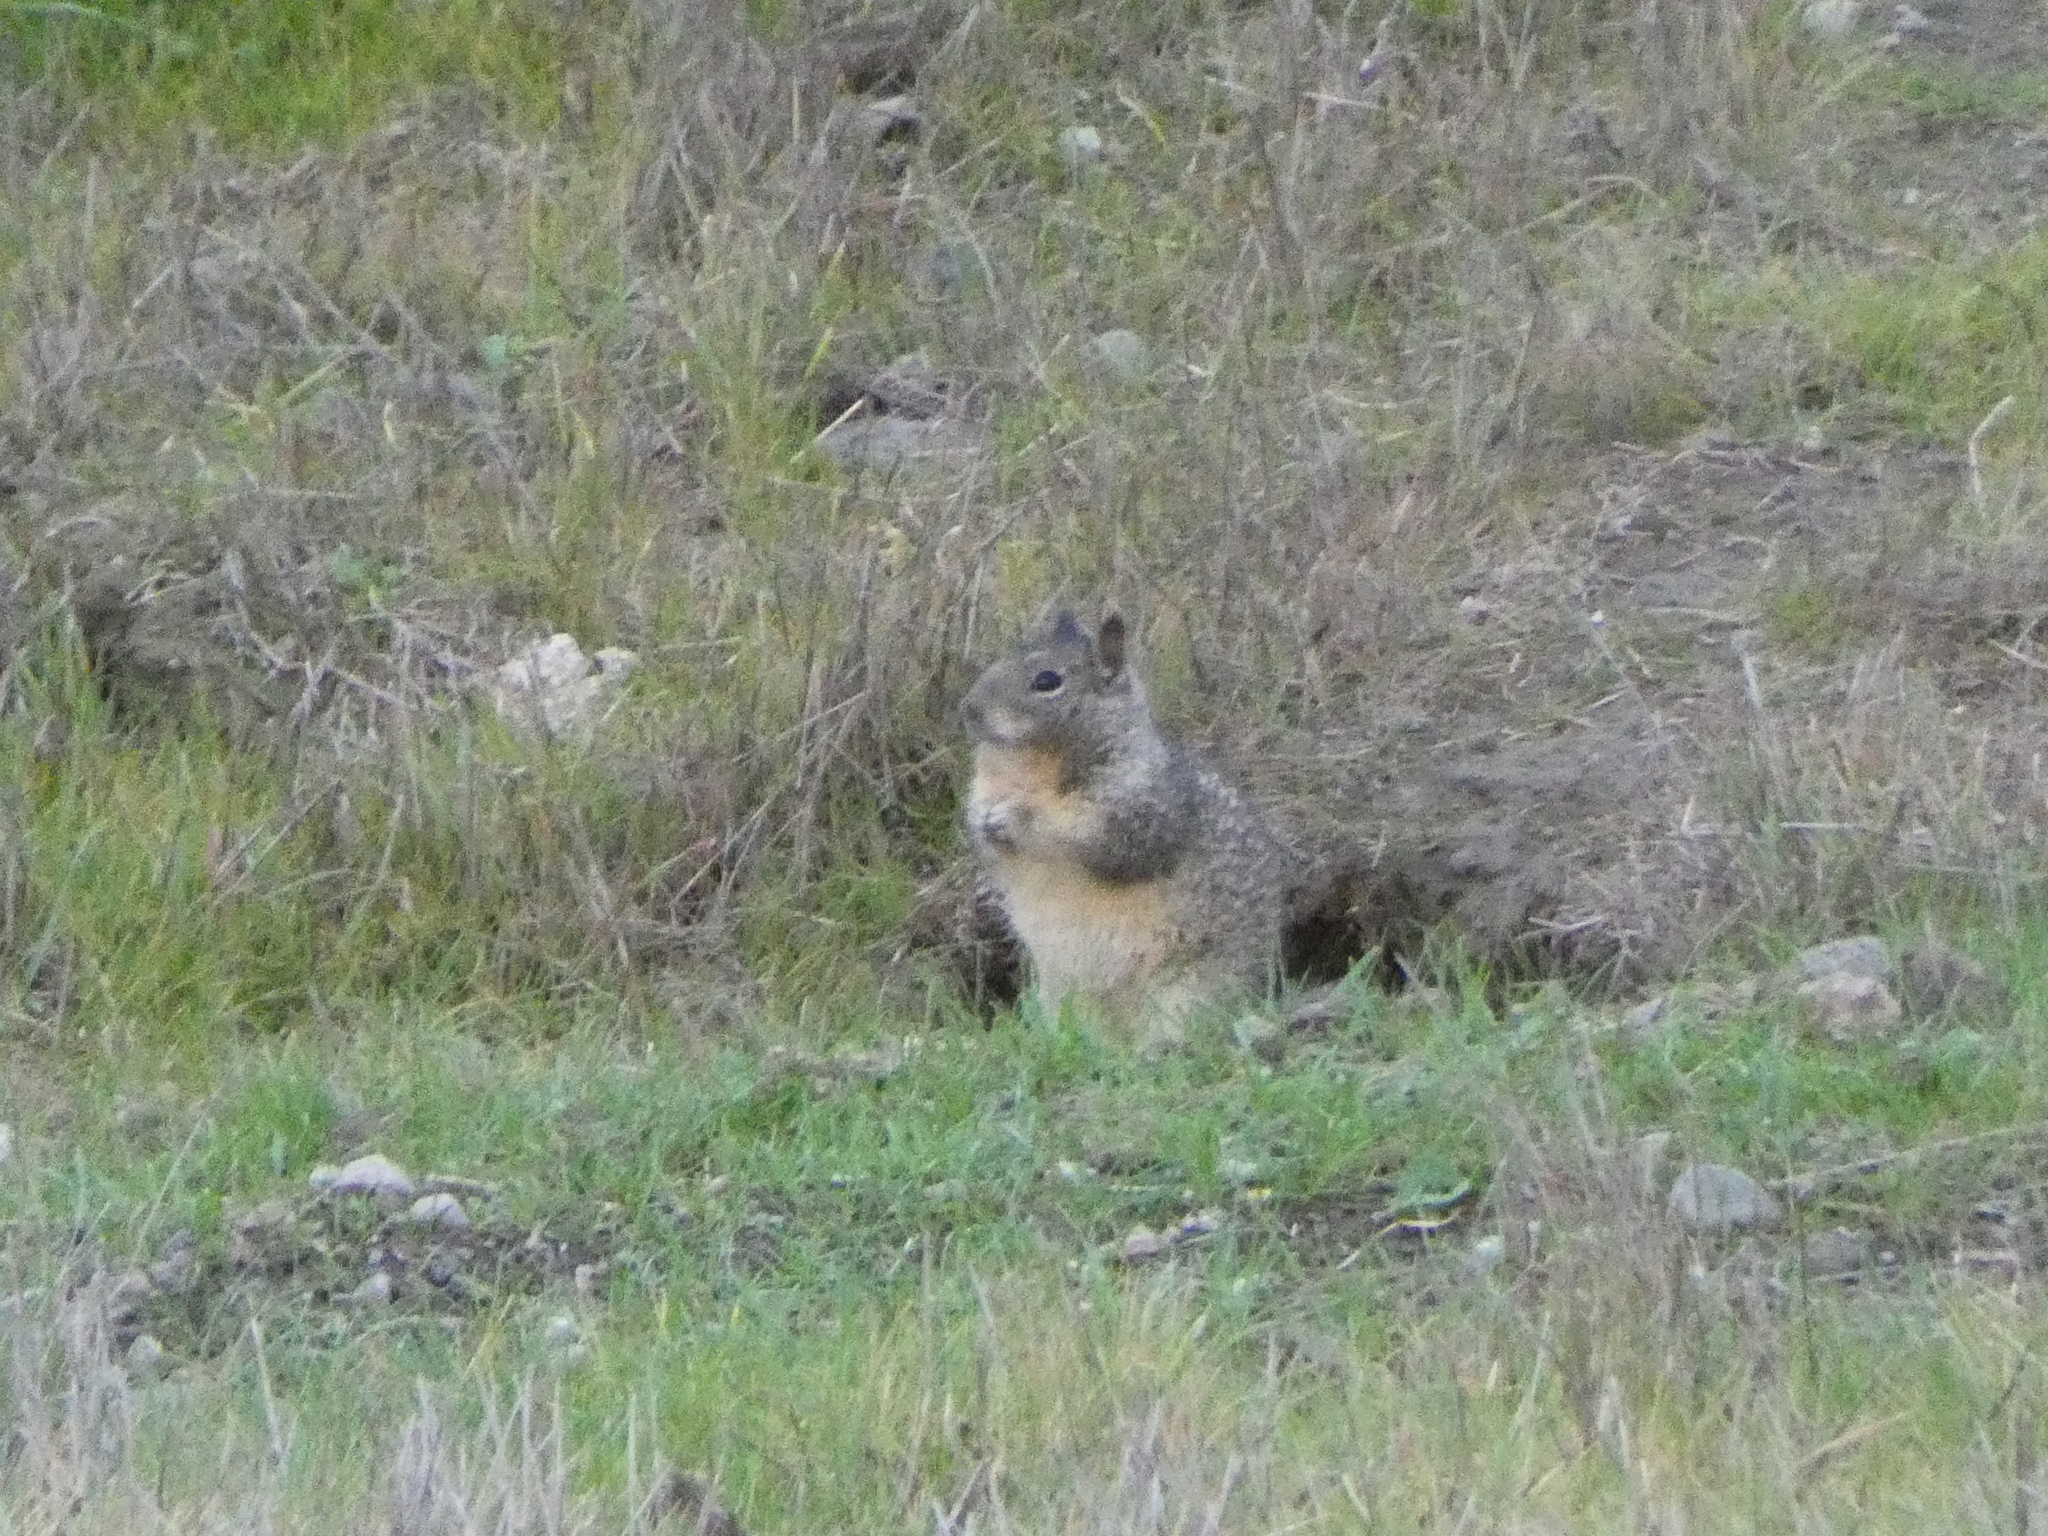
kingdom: Animalia
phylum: Chordata
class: Mammalia
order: Rodentia
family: Sciuridae
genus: Otospermophilus
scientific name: Otospermophilus beecheyi
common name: California ground squirrel
